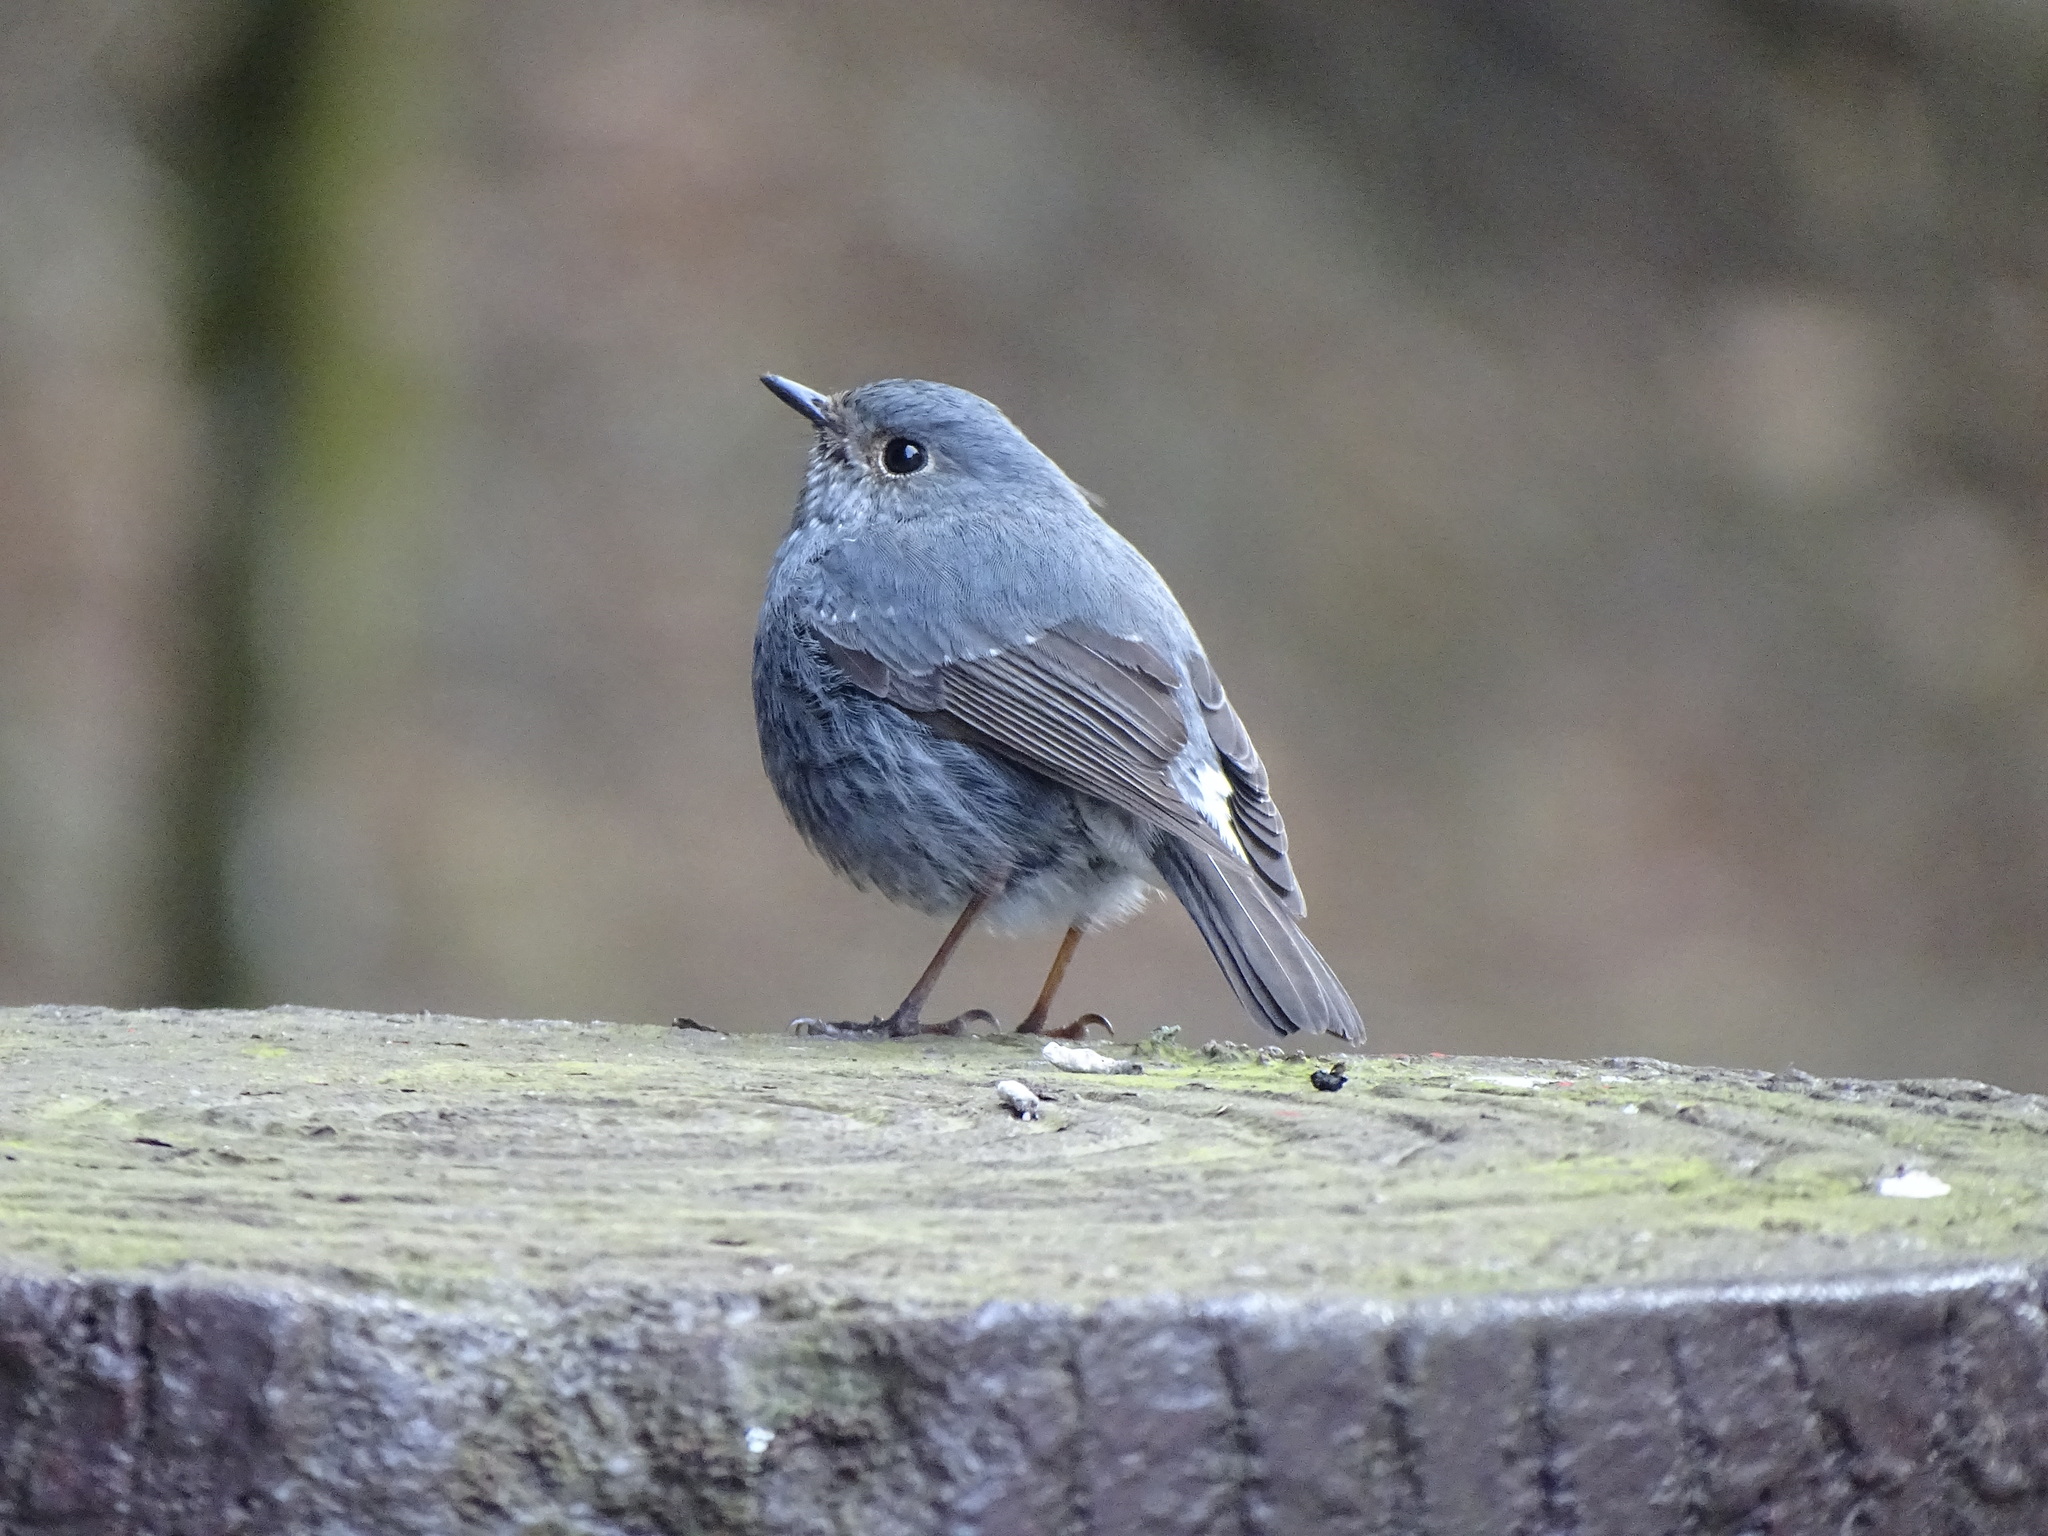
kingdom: Animalia
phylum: Chordata
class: Aves
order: Passeriformes
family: Muscicapidae
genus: Phoenicurus
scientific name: Phoenicurus fuliginosus
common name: Plumbeous water redstart
